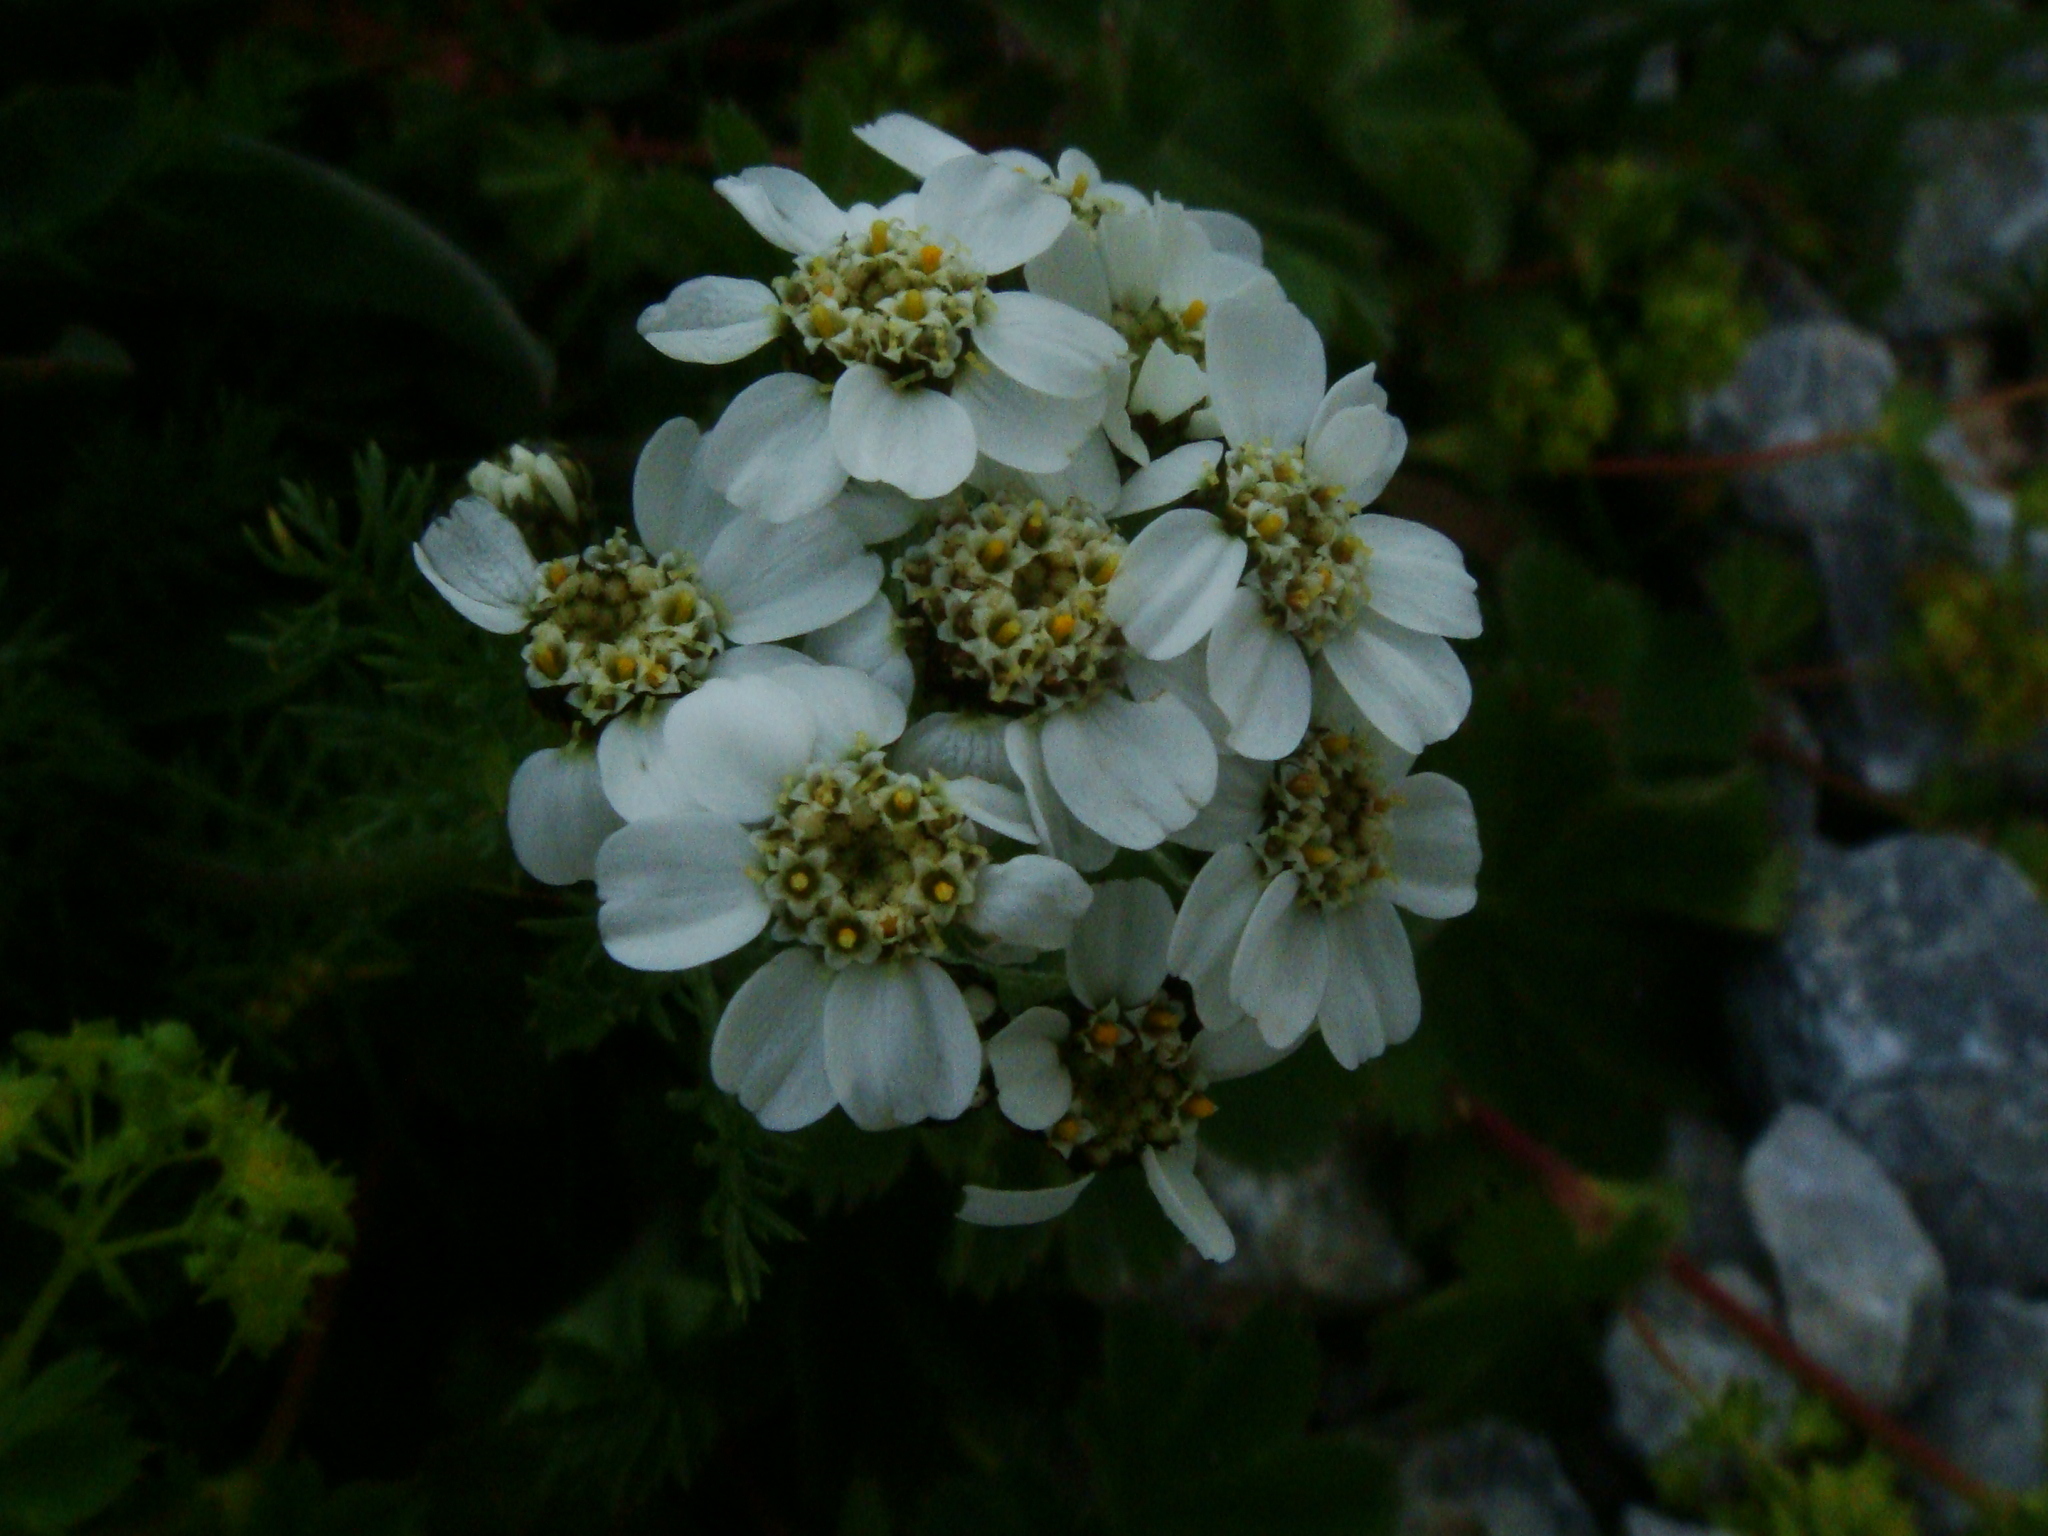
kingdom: Plantae
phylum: Tracheophyta
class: Magnoliopsida
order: Asterales
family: Asteraceae
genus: Achillea
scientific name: Achillea clusiana
